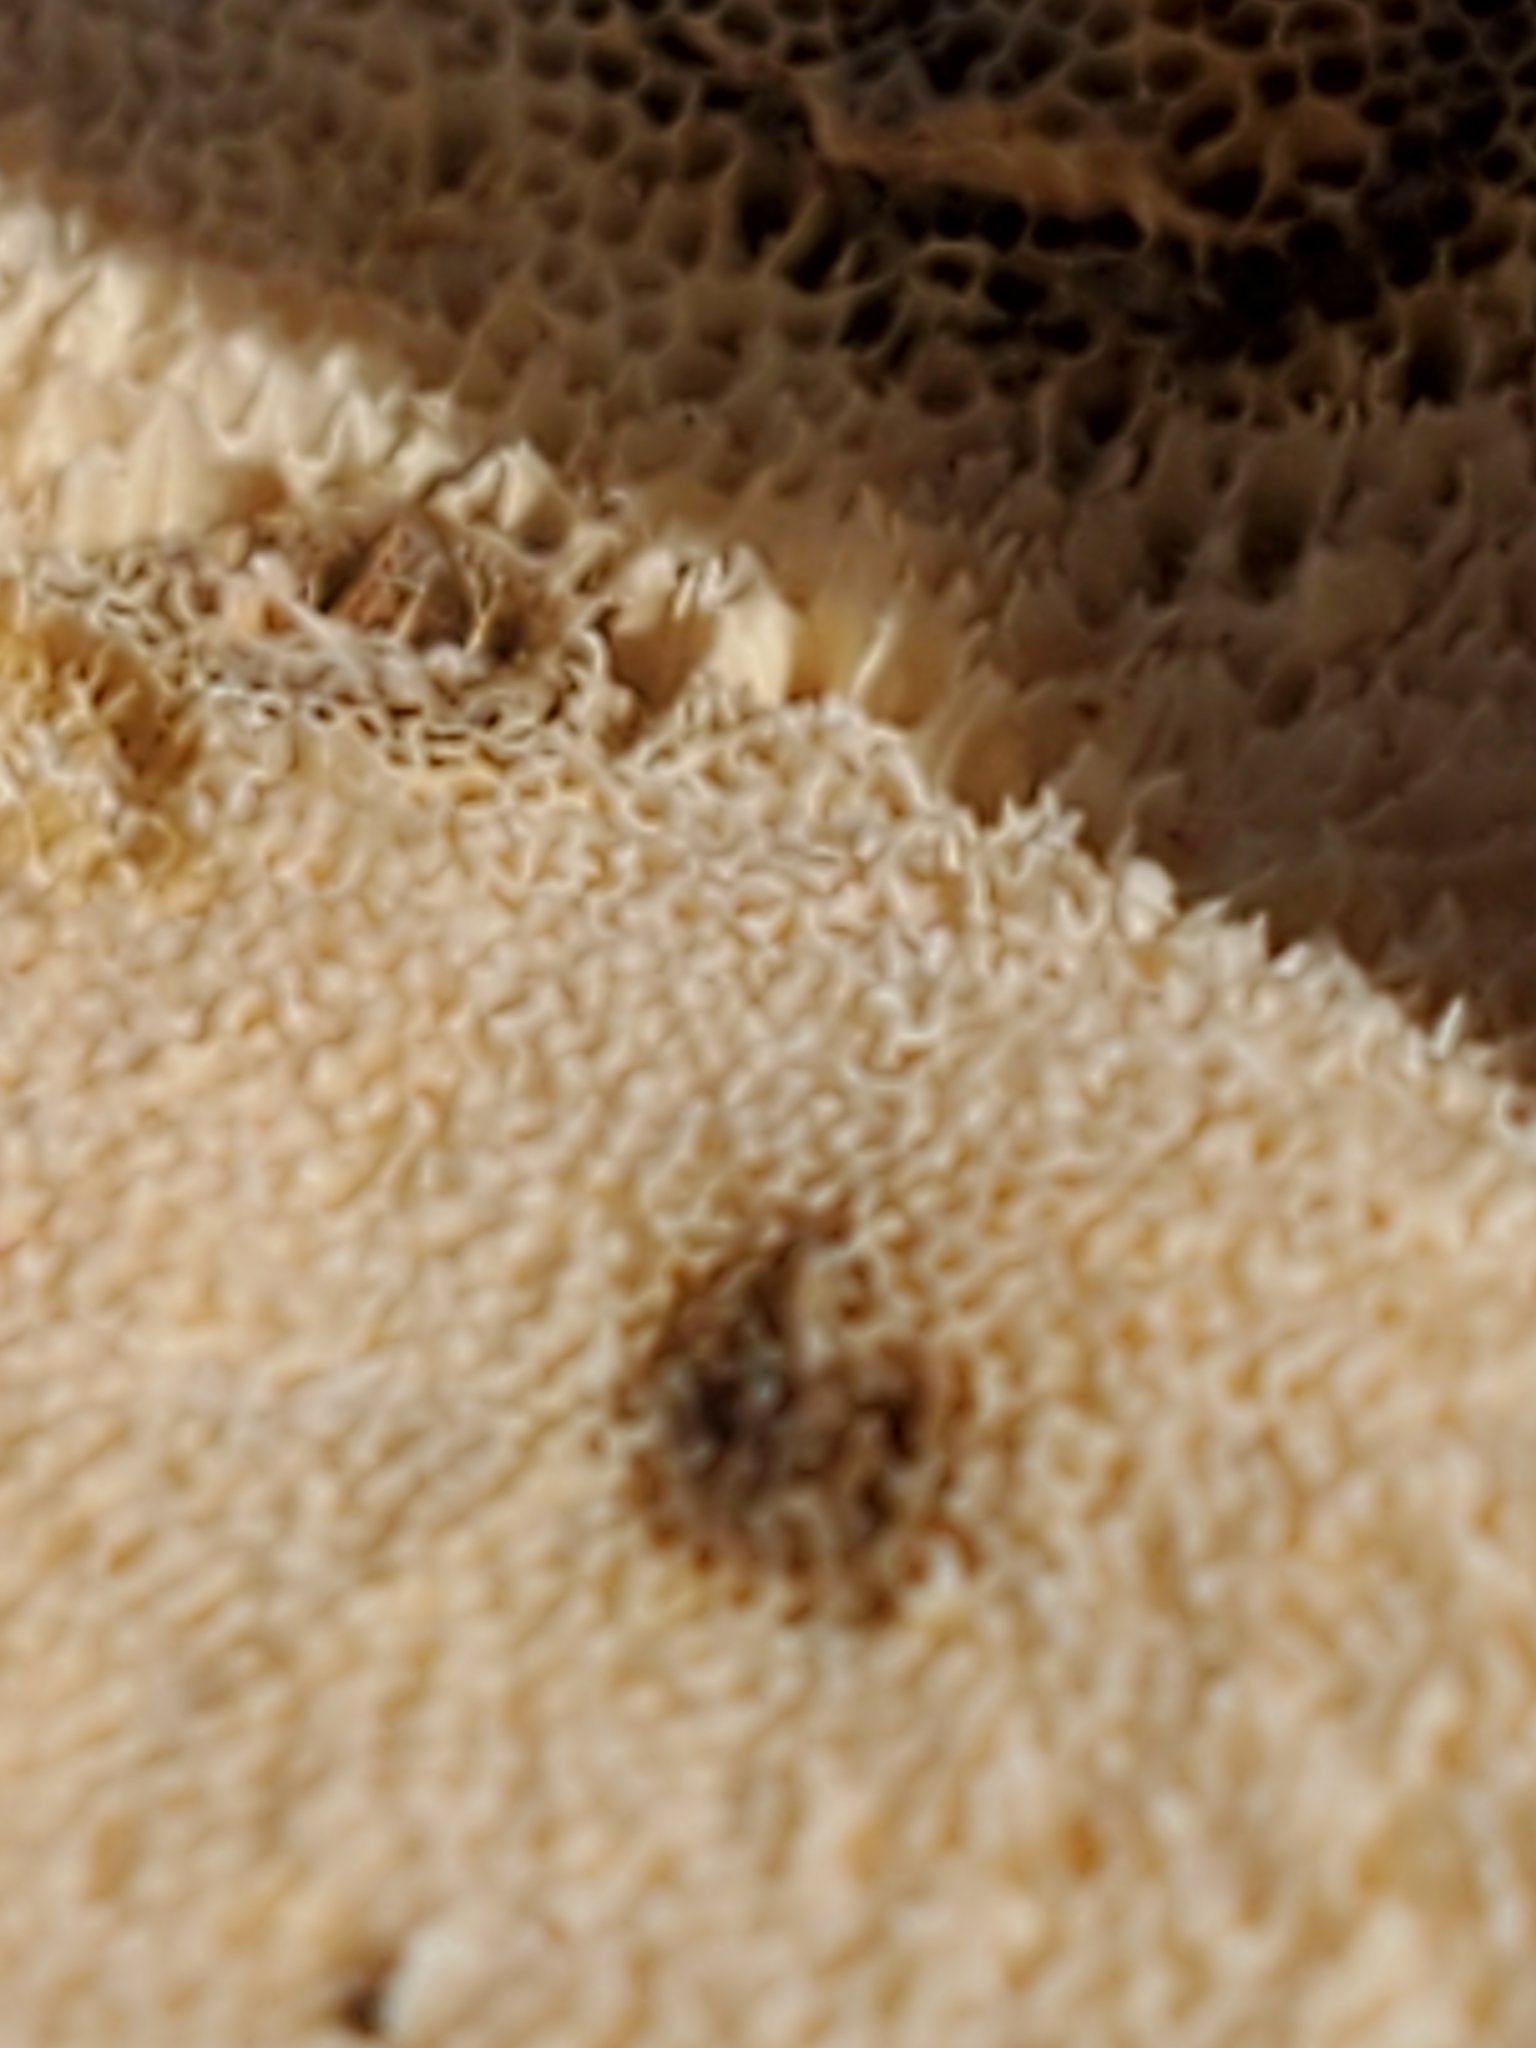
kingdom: Fungi
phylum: Basidiomycota
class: Agaricomycetes
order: Polyporales
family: Polyporaceae
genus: Trametes
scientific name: Trametes versicolor
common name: Turkeytail
